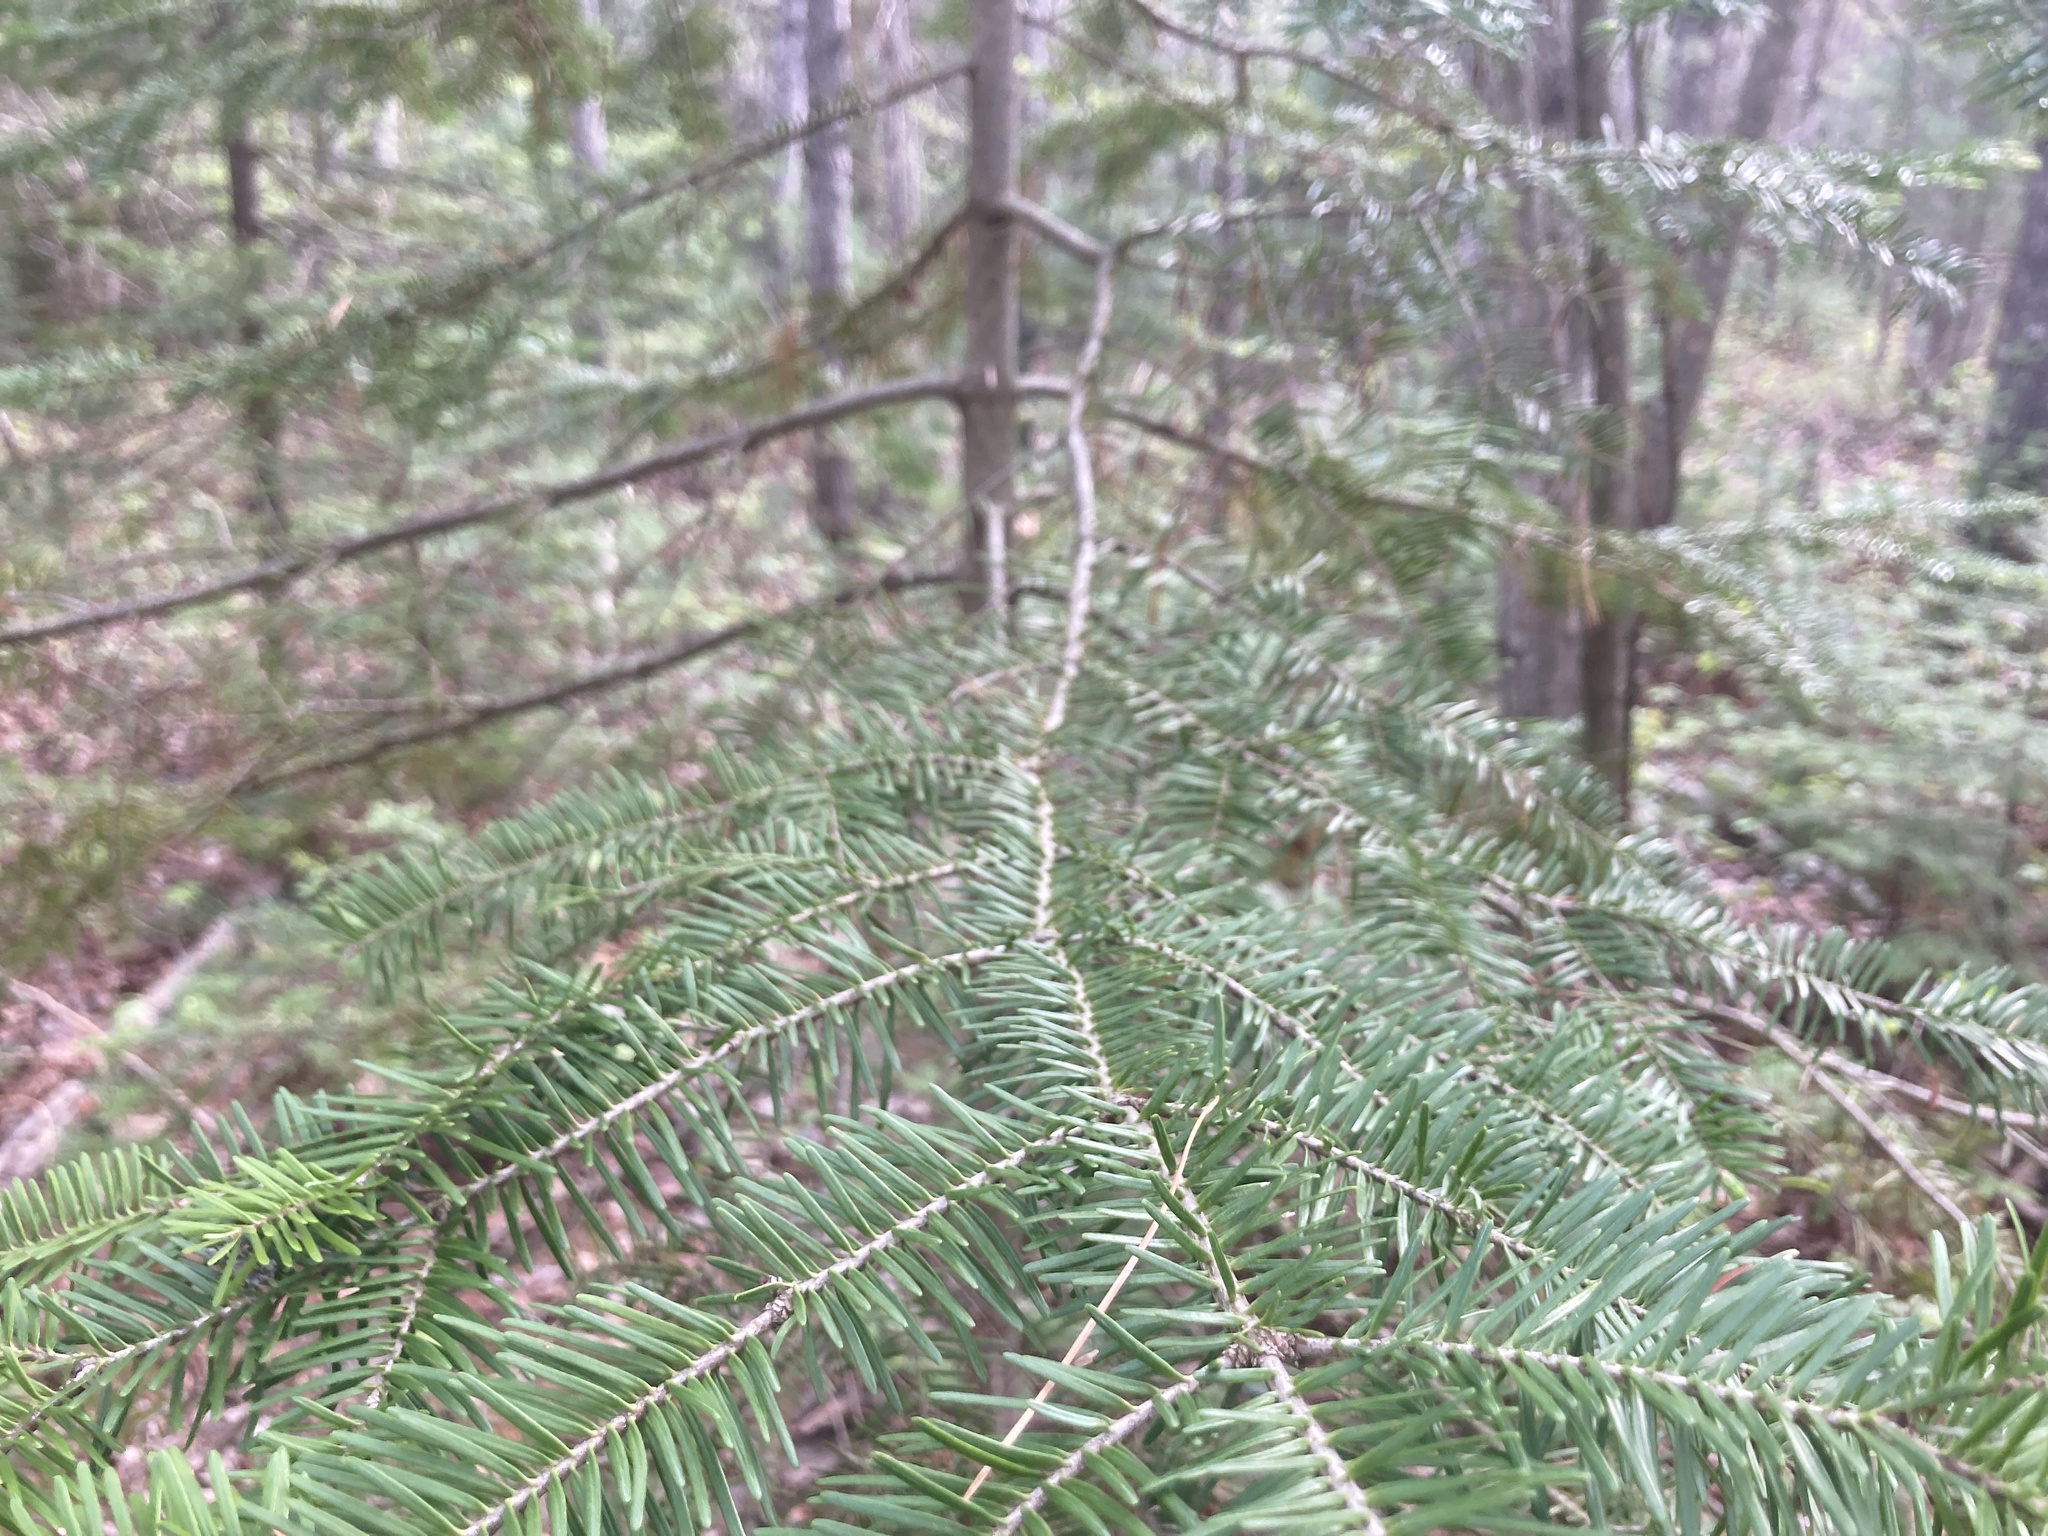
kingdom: Plantae
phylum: Tracheophyta
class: Pinopsida
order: Pinales
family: Pinaceae
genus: Abies
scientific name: Abies balsamea
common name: Balsam fir
